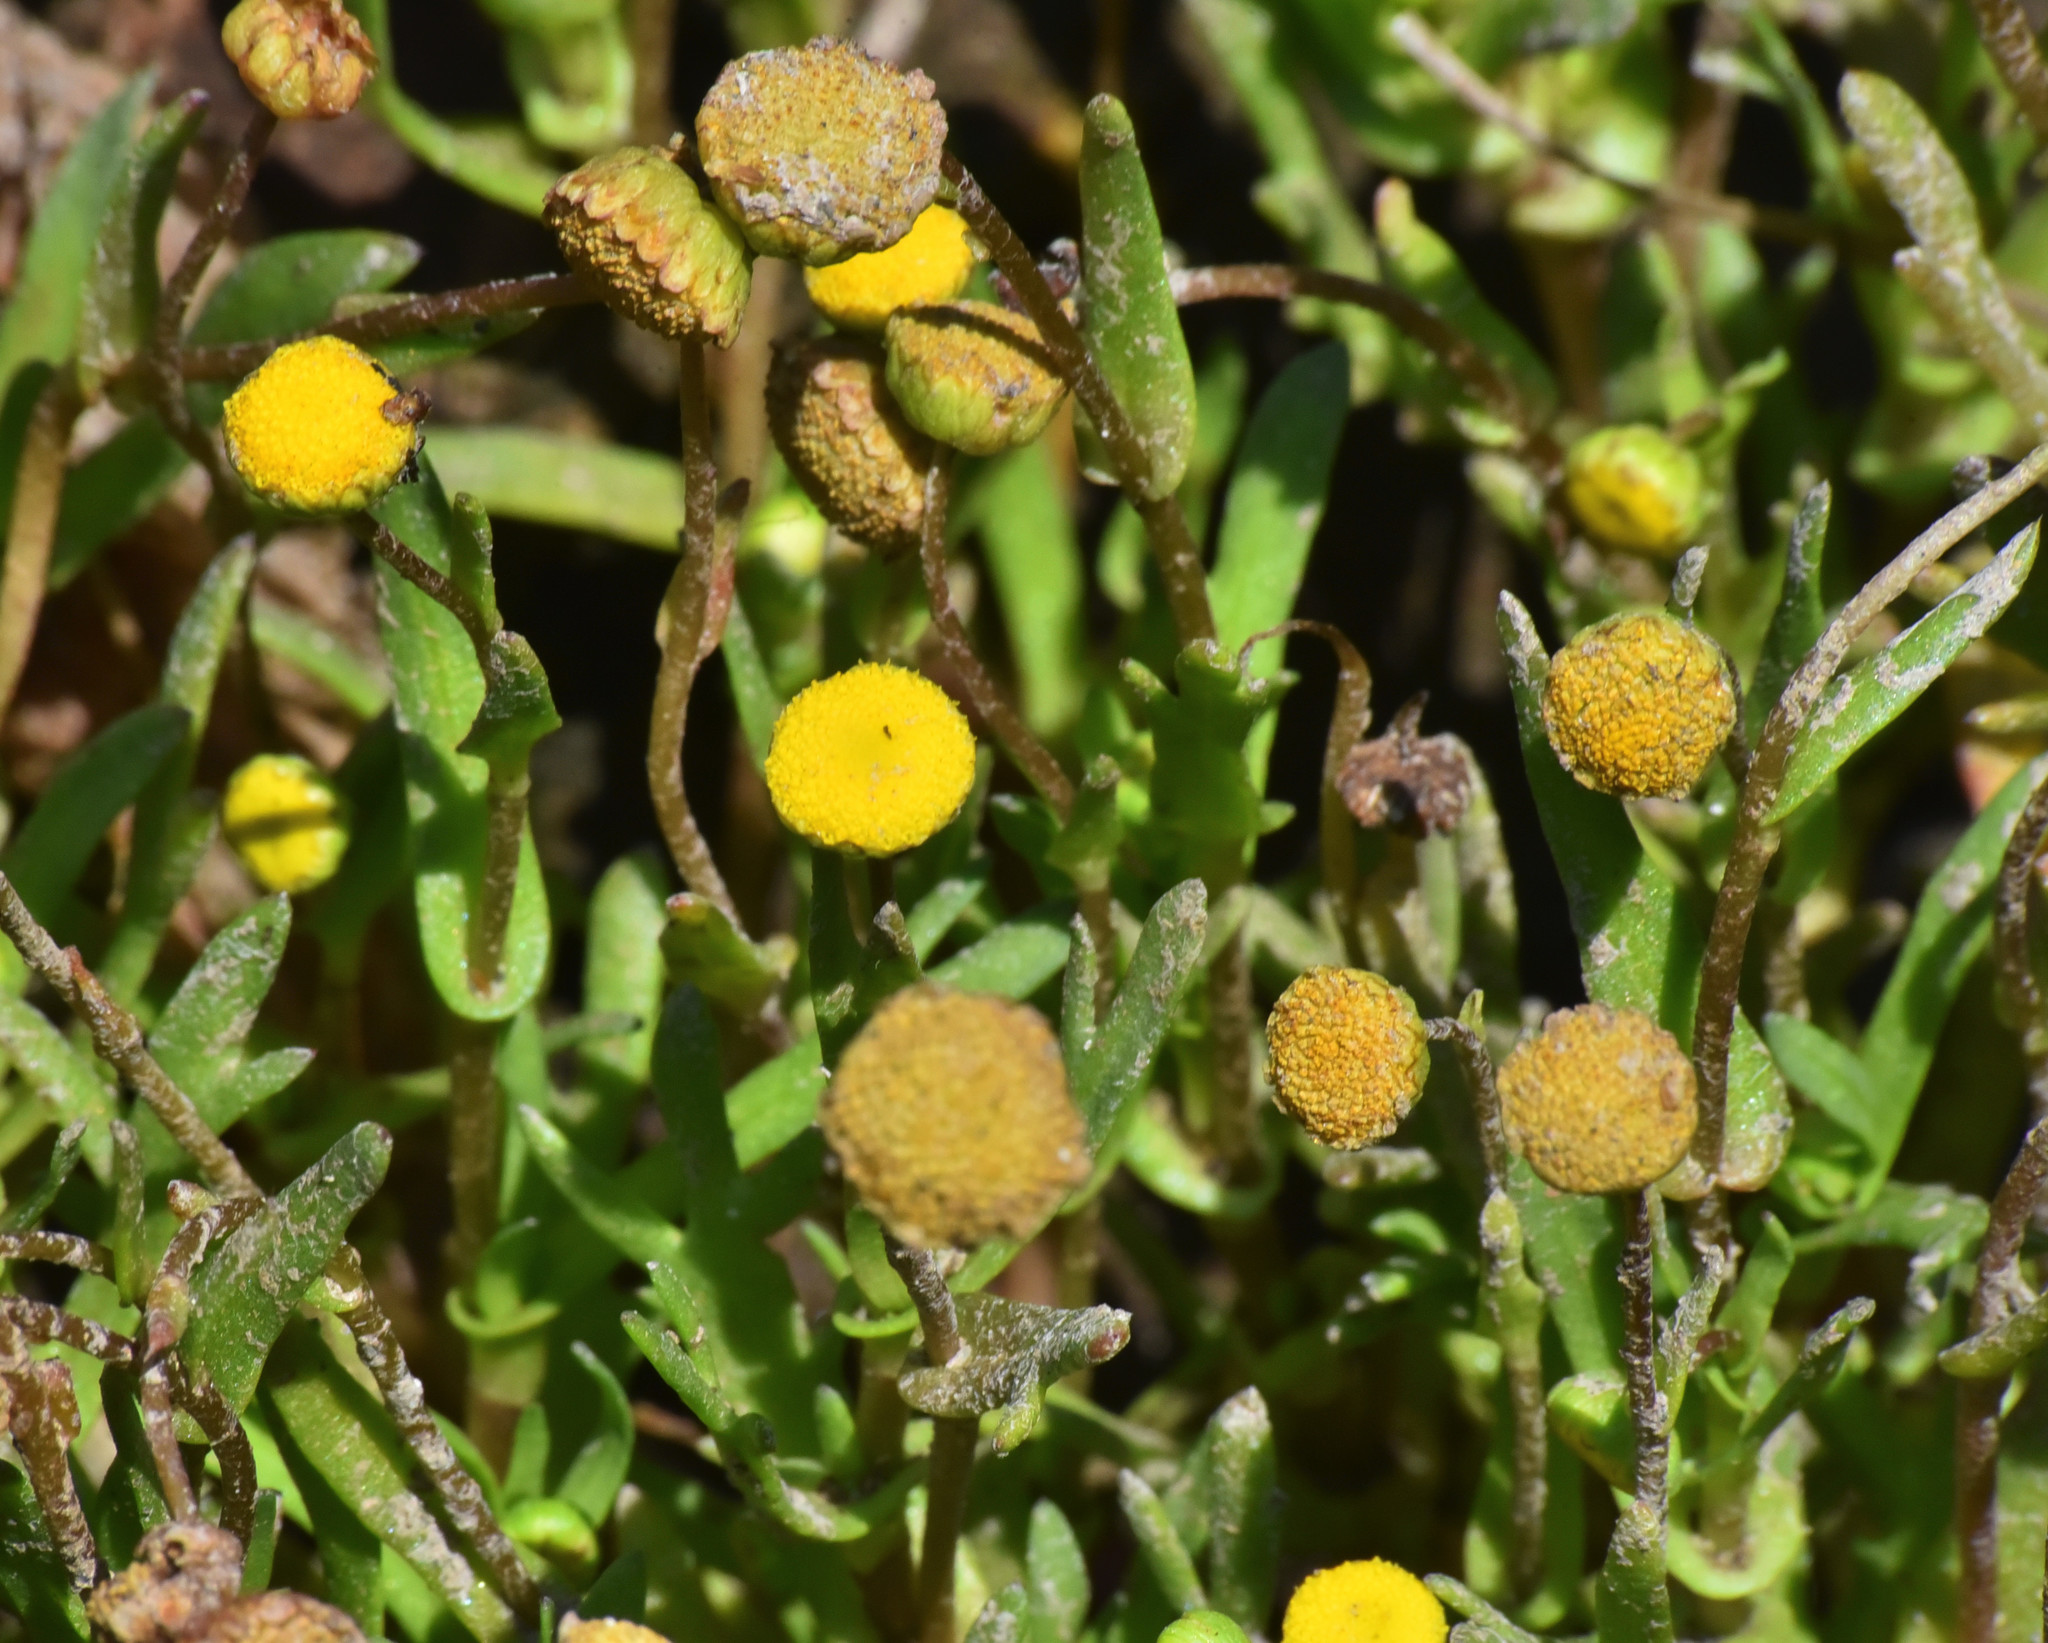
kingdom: Plantae
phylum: Tracheophyta
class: Magnoliopsida
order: Asterales
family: Asteraceae
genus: Cotula
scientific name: Cotula coronopifolia
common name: Buttonweed
